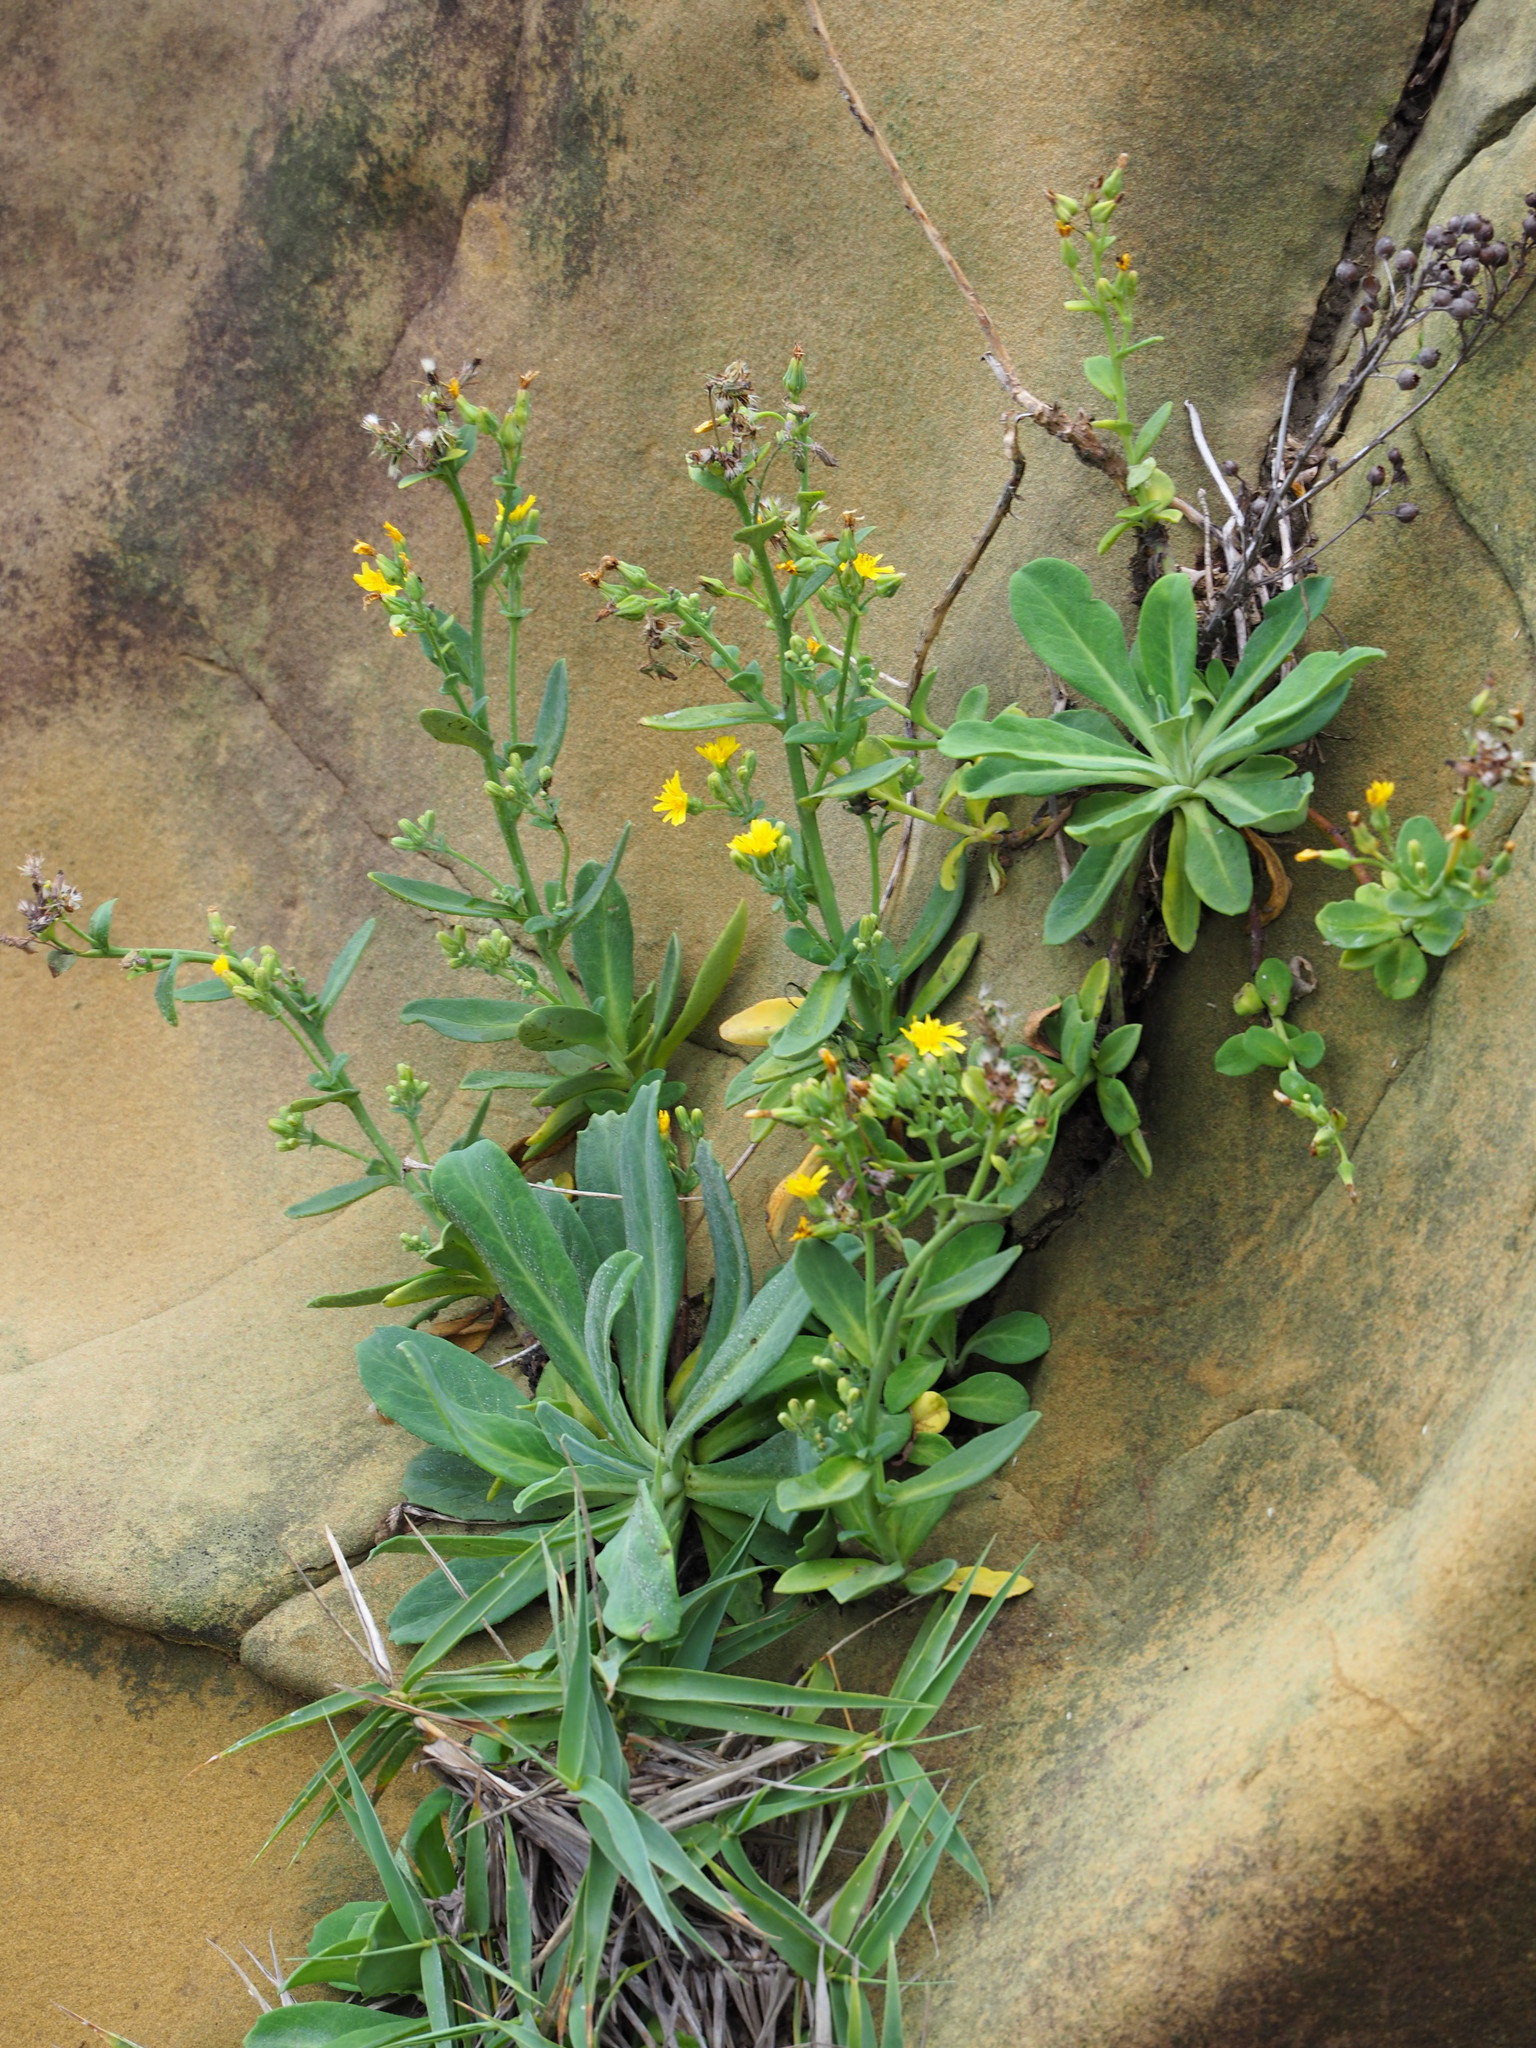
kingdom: Plantae
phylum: Tracheophyta
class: Magnoliopsida
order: Asterales
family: Asteraceae
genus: Crepidiastrum
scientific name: Crepidiastrum lanceolatum
